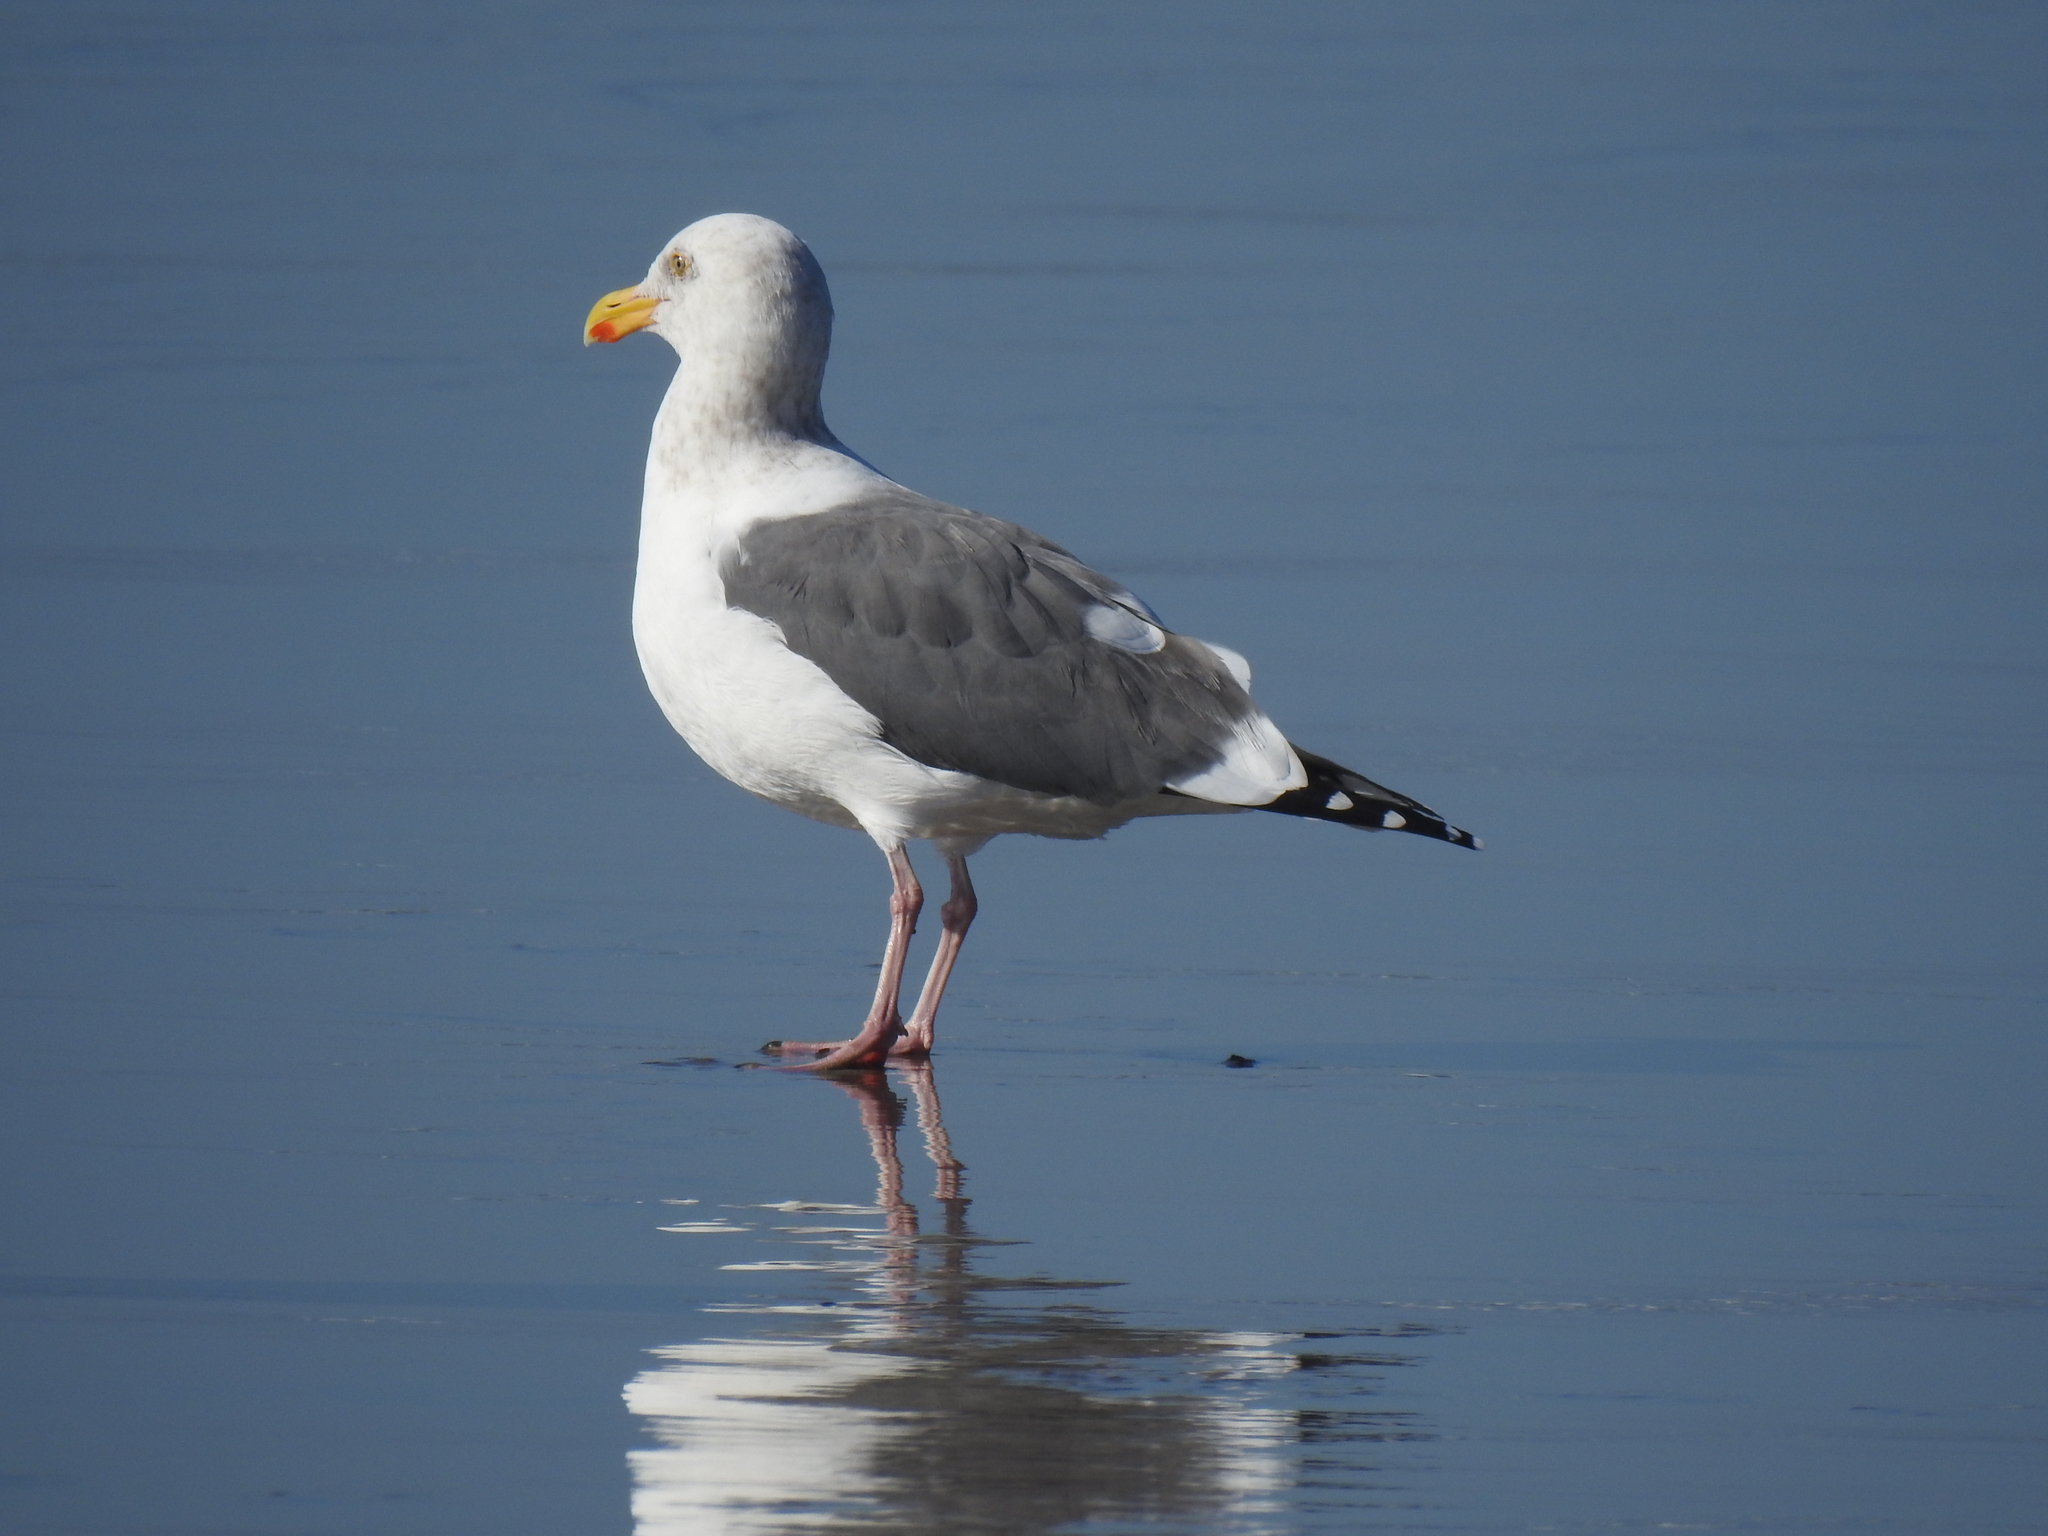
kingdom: Animalia
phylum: Chordata
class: Aves
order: Charadriiformes
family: Laridae
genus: Larus
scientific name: Larus occidentalis
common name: Western gull
